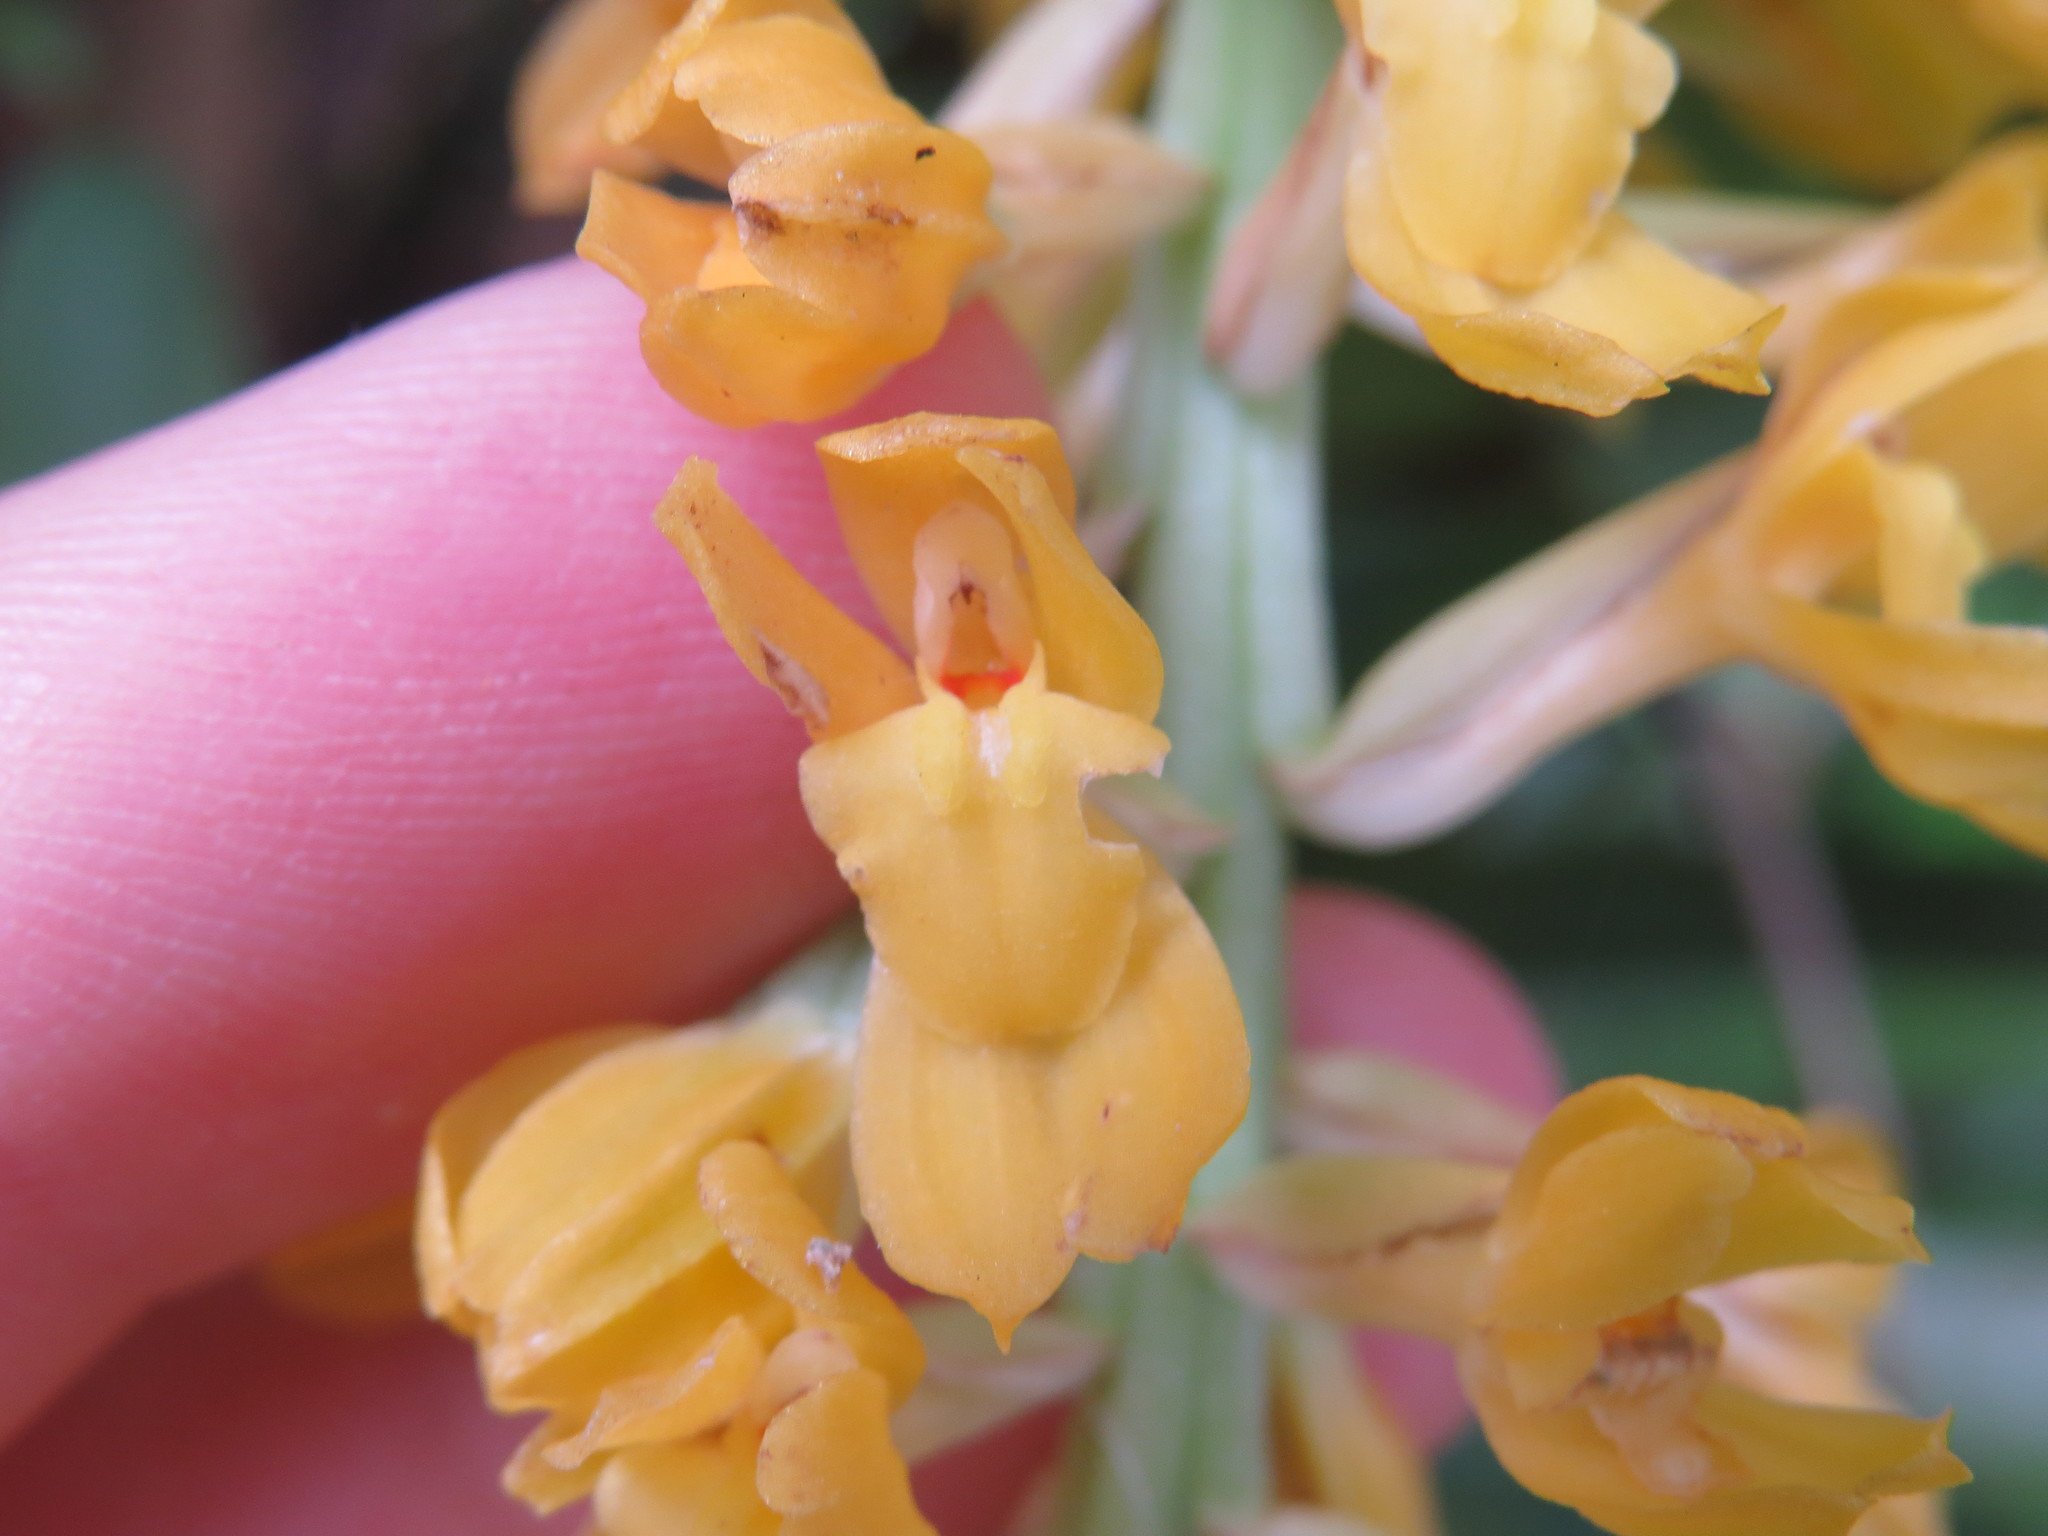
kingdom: Plantae
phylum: Tracheophyta
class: Liliopsida
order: Asparagales
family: Orchidaceae
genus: Gomesa
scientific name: Gomesa planifolia
